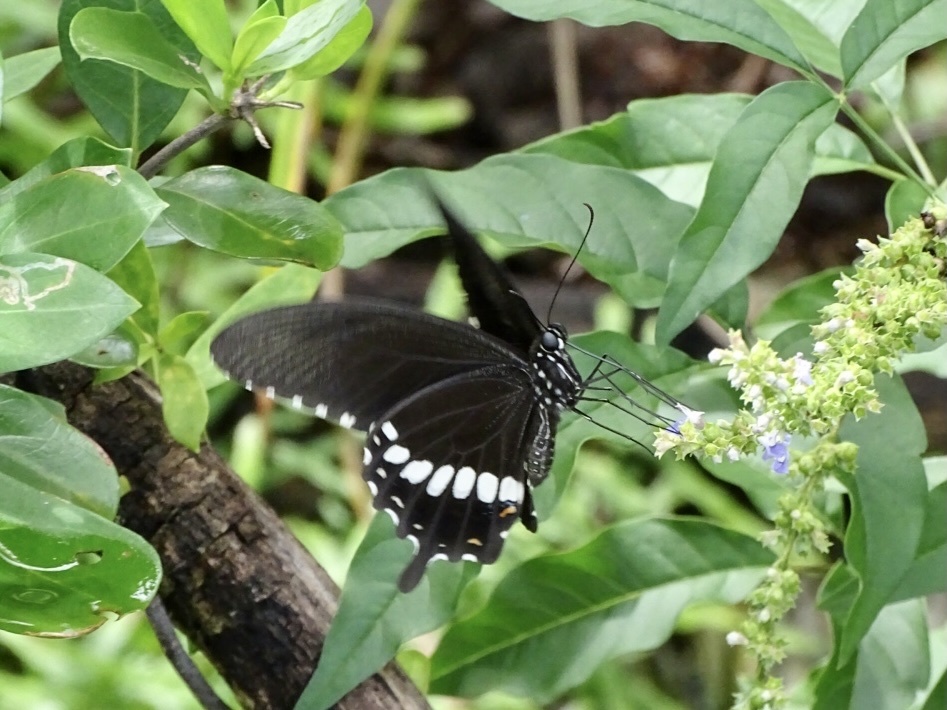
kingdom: Animalia
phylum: Arthropoda
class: Insecta
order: Lepidoptera
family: Papilionidae
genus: Papilio
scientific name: Papilio polytes
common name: Common mormon
